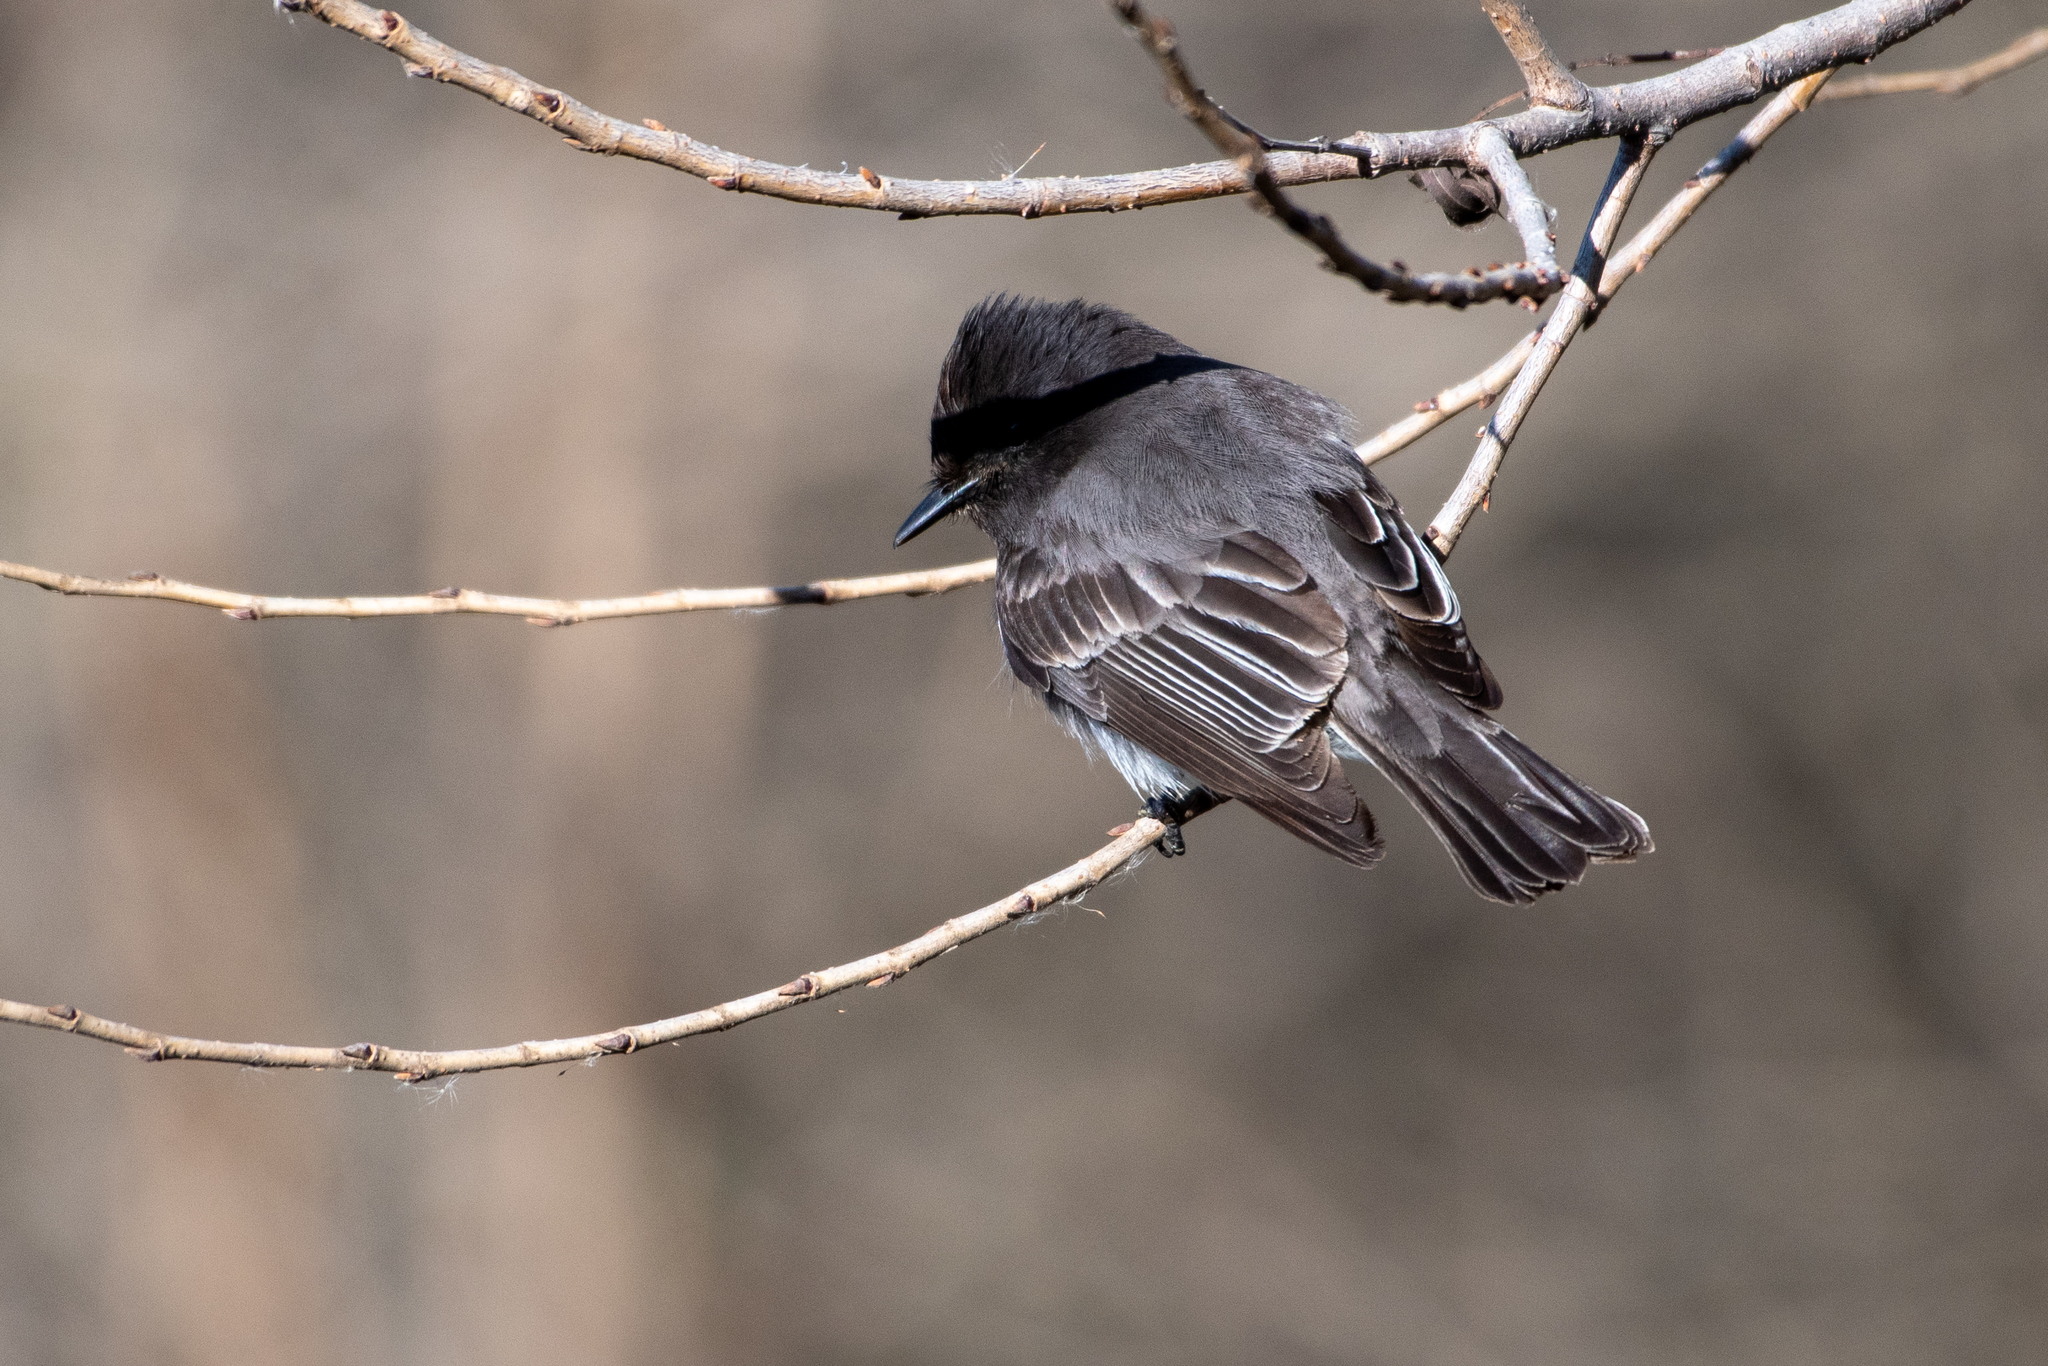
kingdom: Animalia
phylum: Chordata
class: Aves
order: Passeriformes
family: Tyrannidae
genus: Sayornis
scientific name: Sayornis nigricans
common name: Black phoebe
